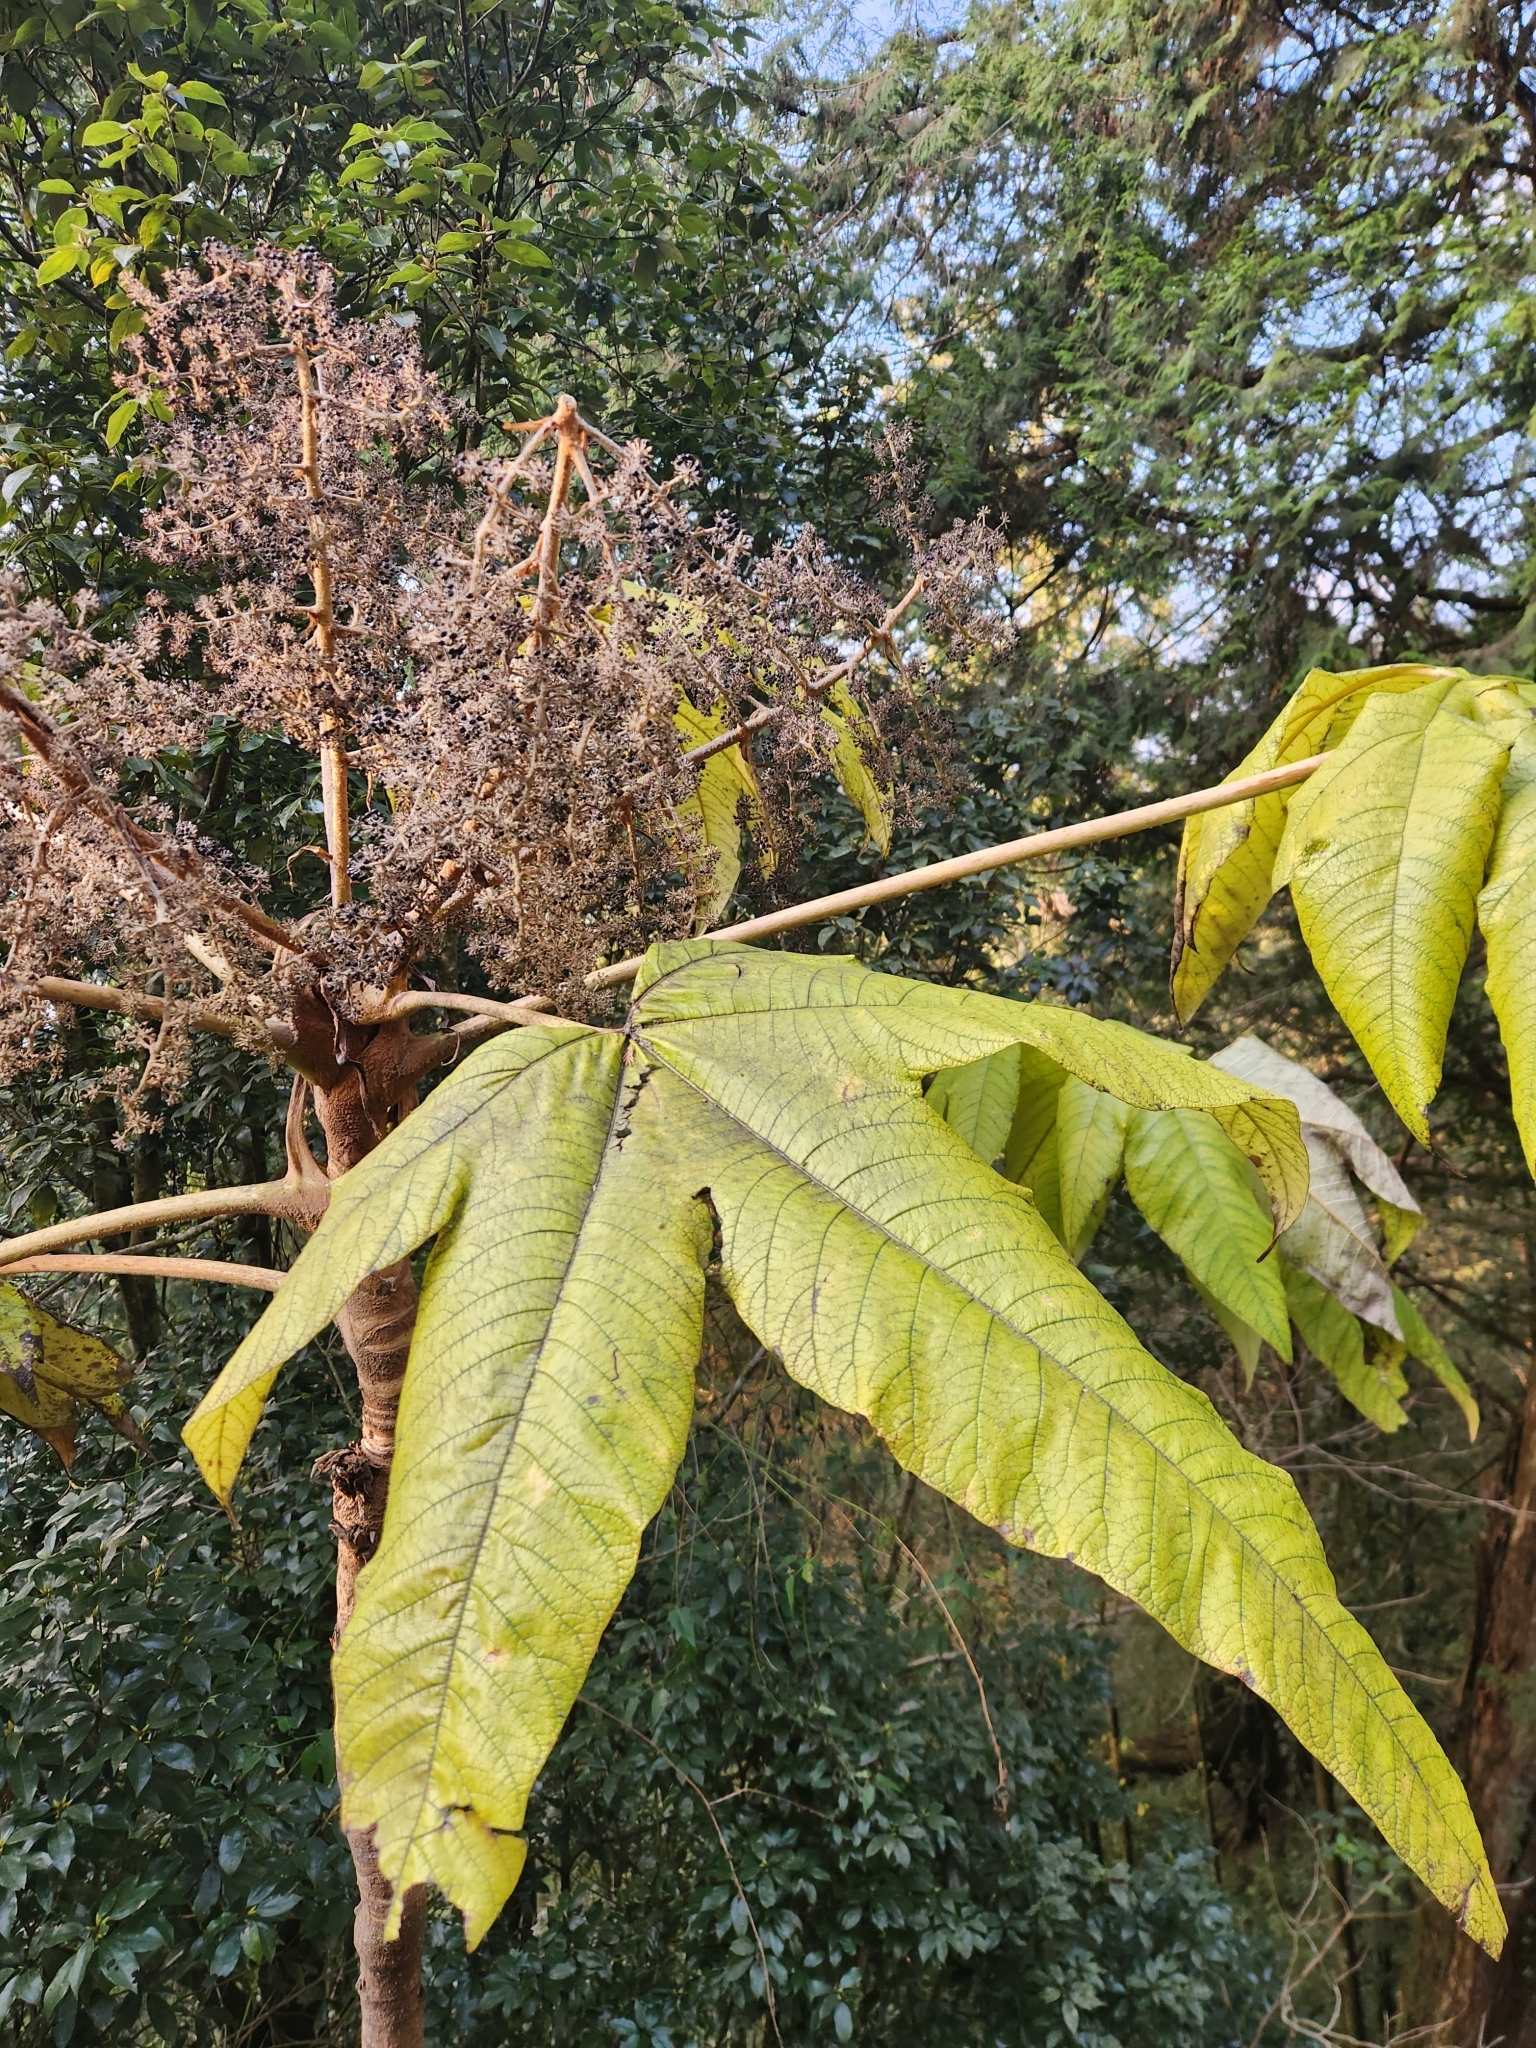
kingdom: Plantae
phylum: Tracheophyta
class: Magnoliopsida
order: Apiales
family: Araliaceae
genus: Tetrapanax
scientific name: Tetrapanax papyrifer
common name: Rice-paper plant
